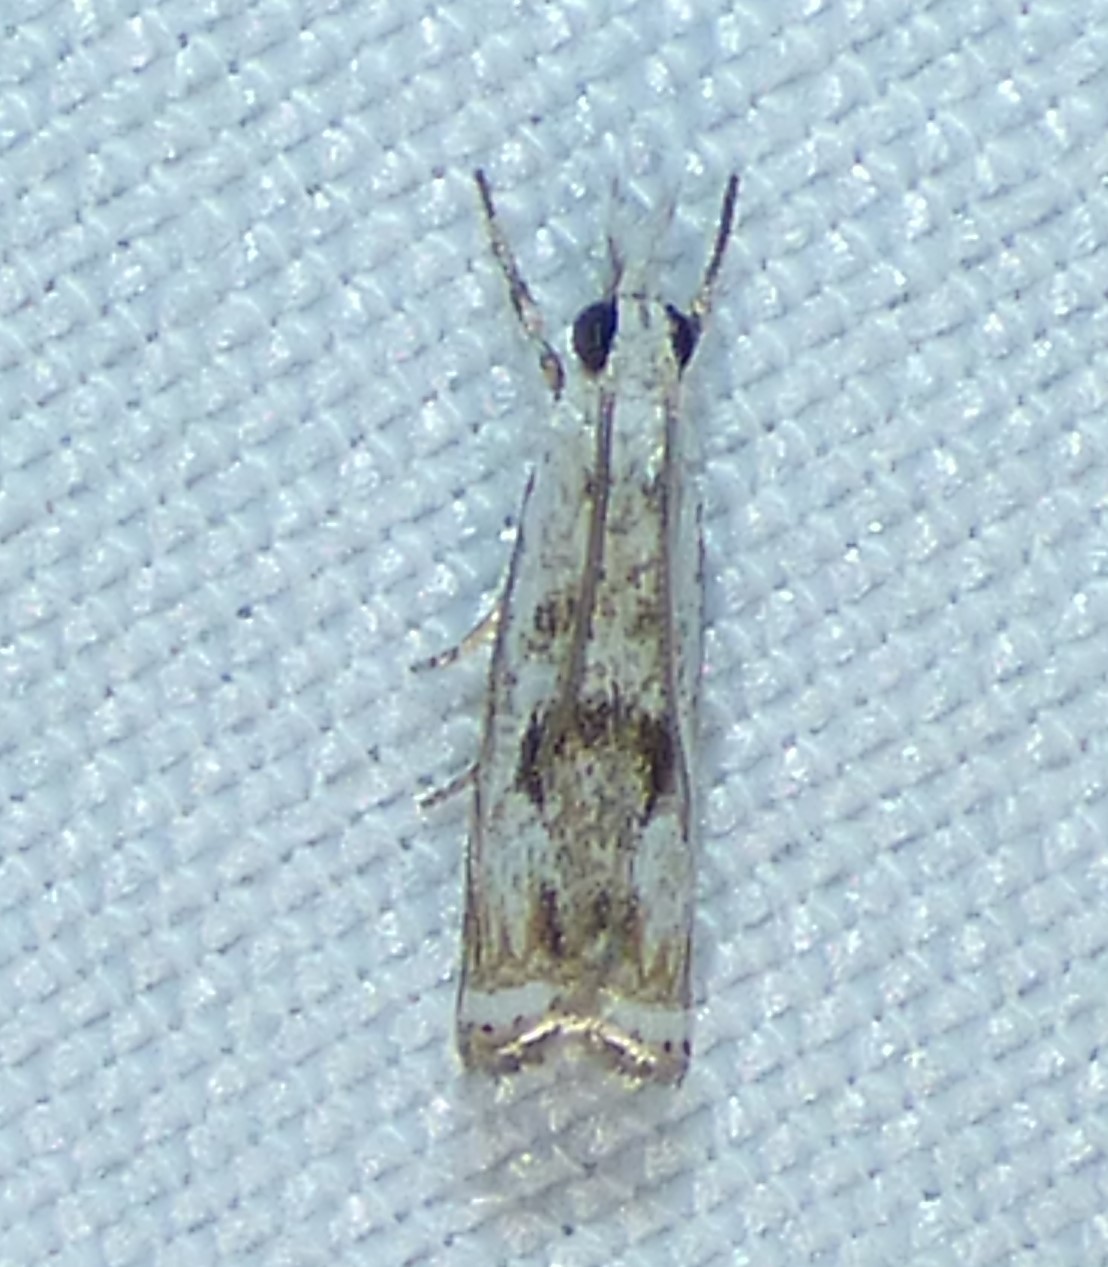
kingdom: Animalia
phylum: Arthropoda
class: Insecta
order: Lepidoptera
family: Crambidae
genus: Microcrambus
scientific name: Microcrambus immunellus
